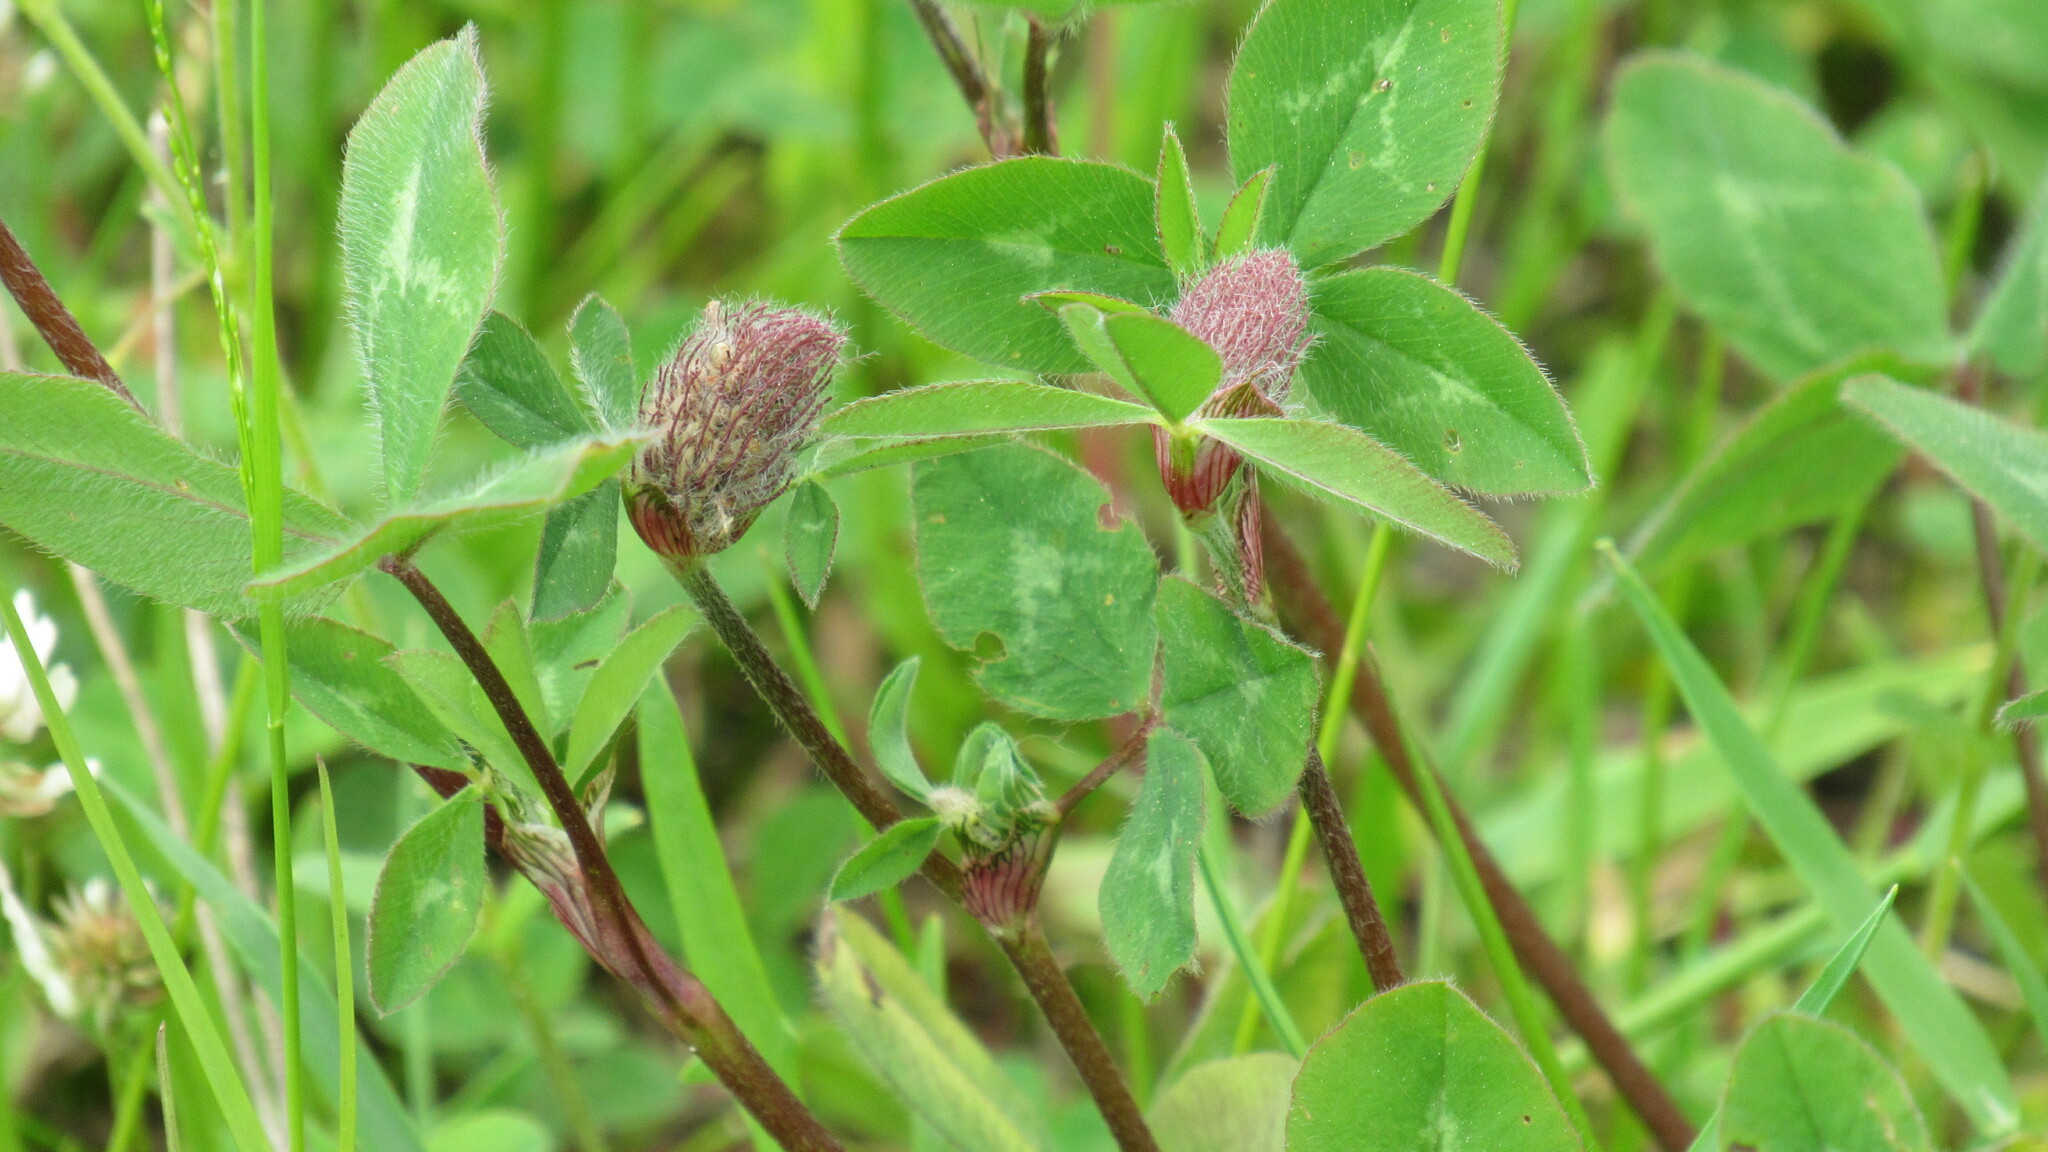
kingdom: Plantae
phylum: Tracheophyta
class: Magnoliopsida
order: Fabales
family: Fabaceae
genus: Trifolium
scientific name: Trifolium pratense
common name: Red clover
